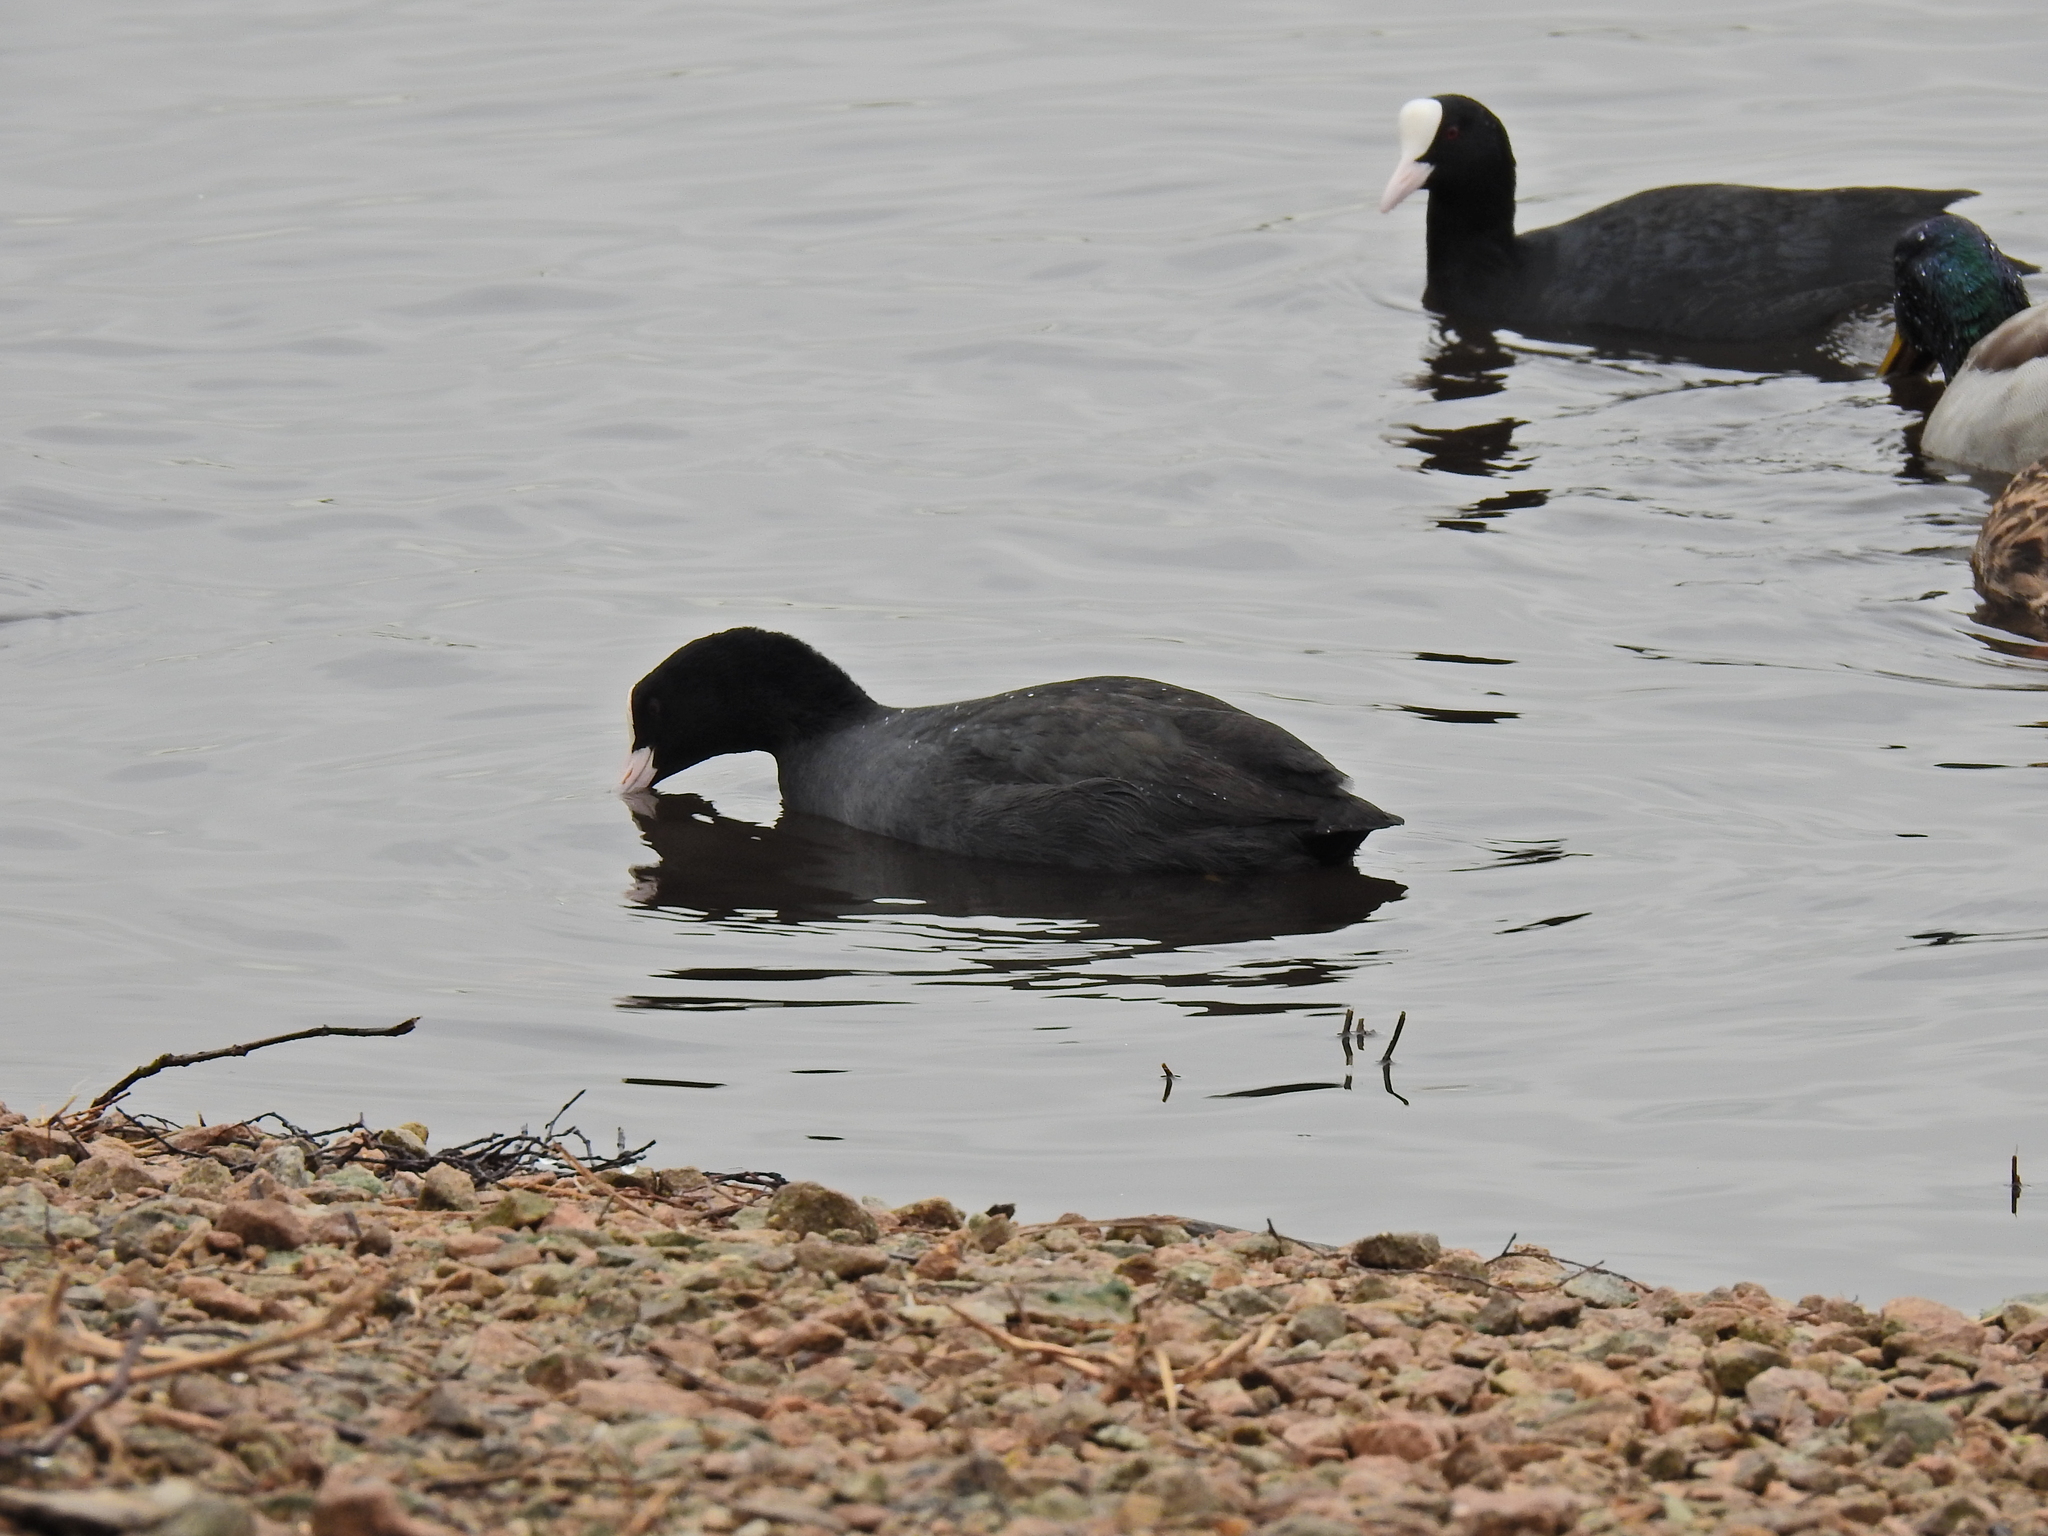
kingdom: Animalia
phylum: Chordata
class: Aves
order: Gruiformes
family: Rallidae
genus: Fulica
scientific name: Fulica atra
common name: Eurasian coot
